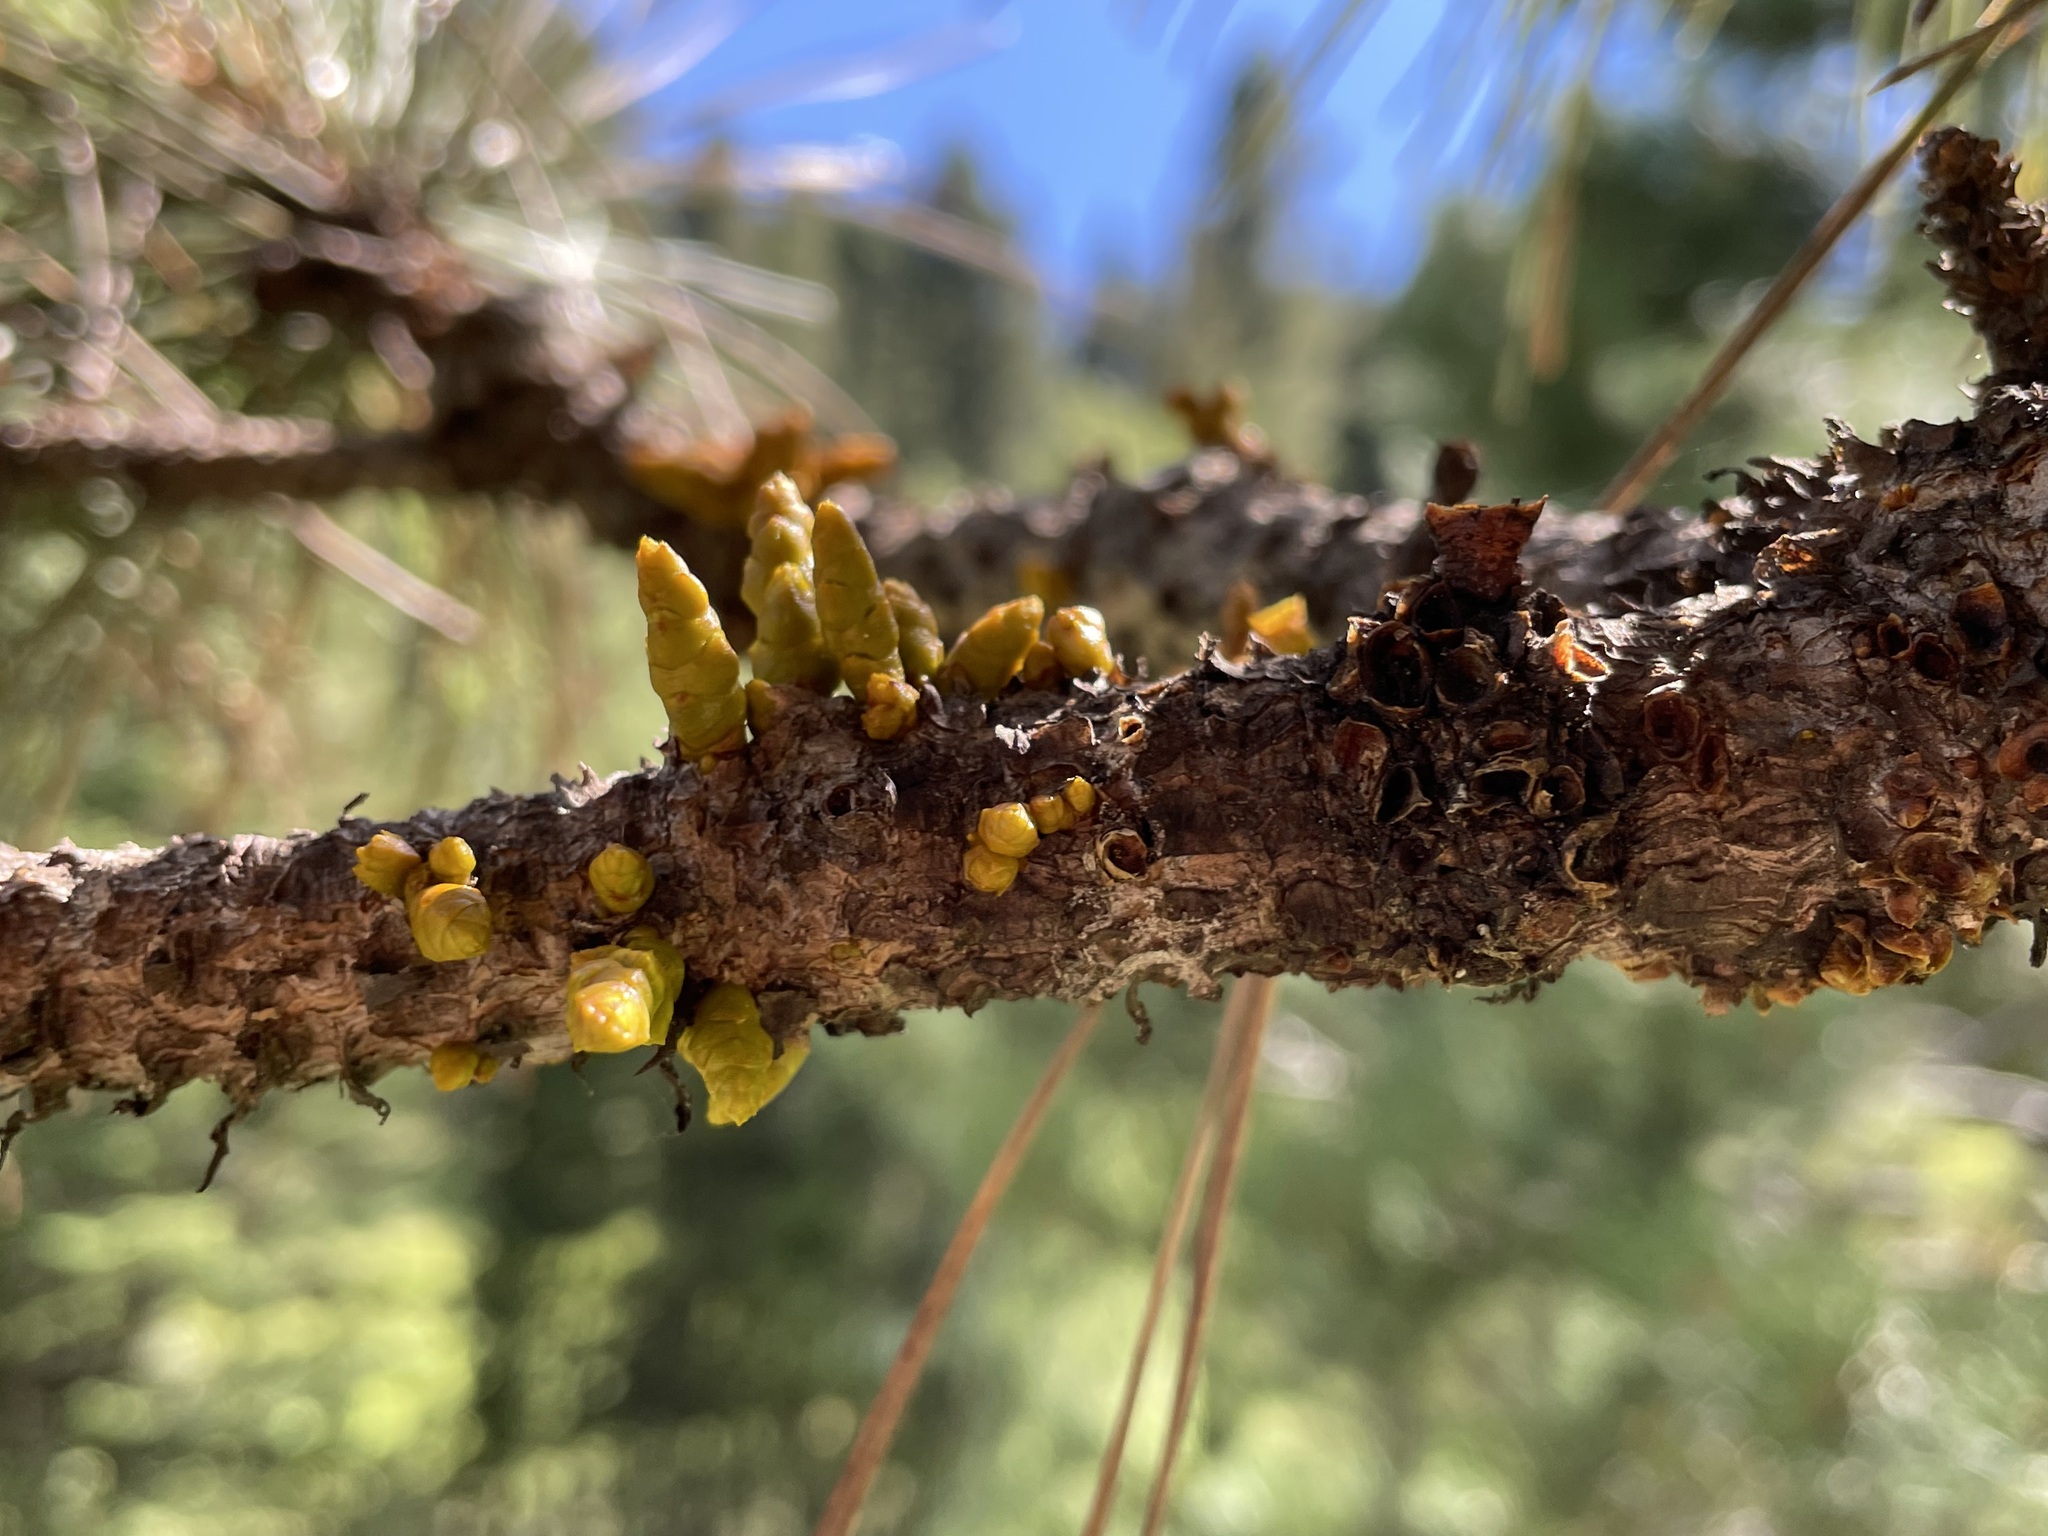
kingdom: Plantae
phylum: Tracheophyta
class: Magnoliopsida
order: Santalales
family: Viscaceae
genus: Arceuthobium
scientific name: Arceuthobium vaginatum
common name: Southwestern dwarf-mistletoe
